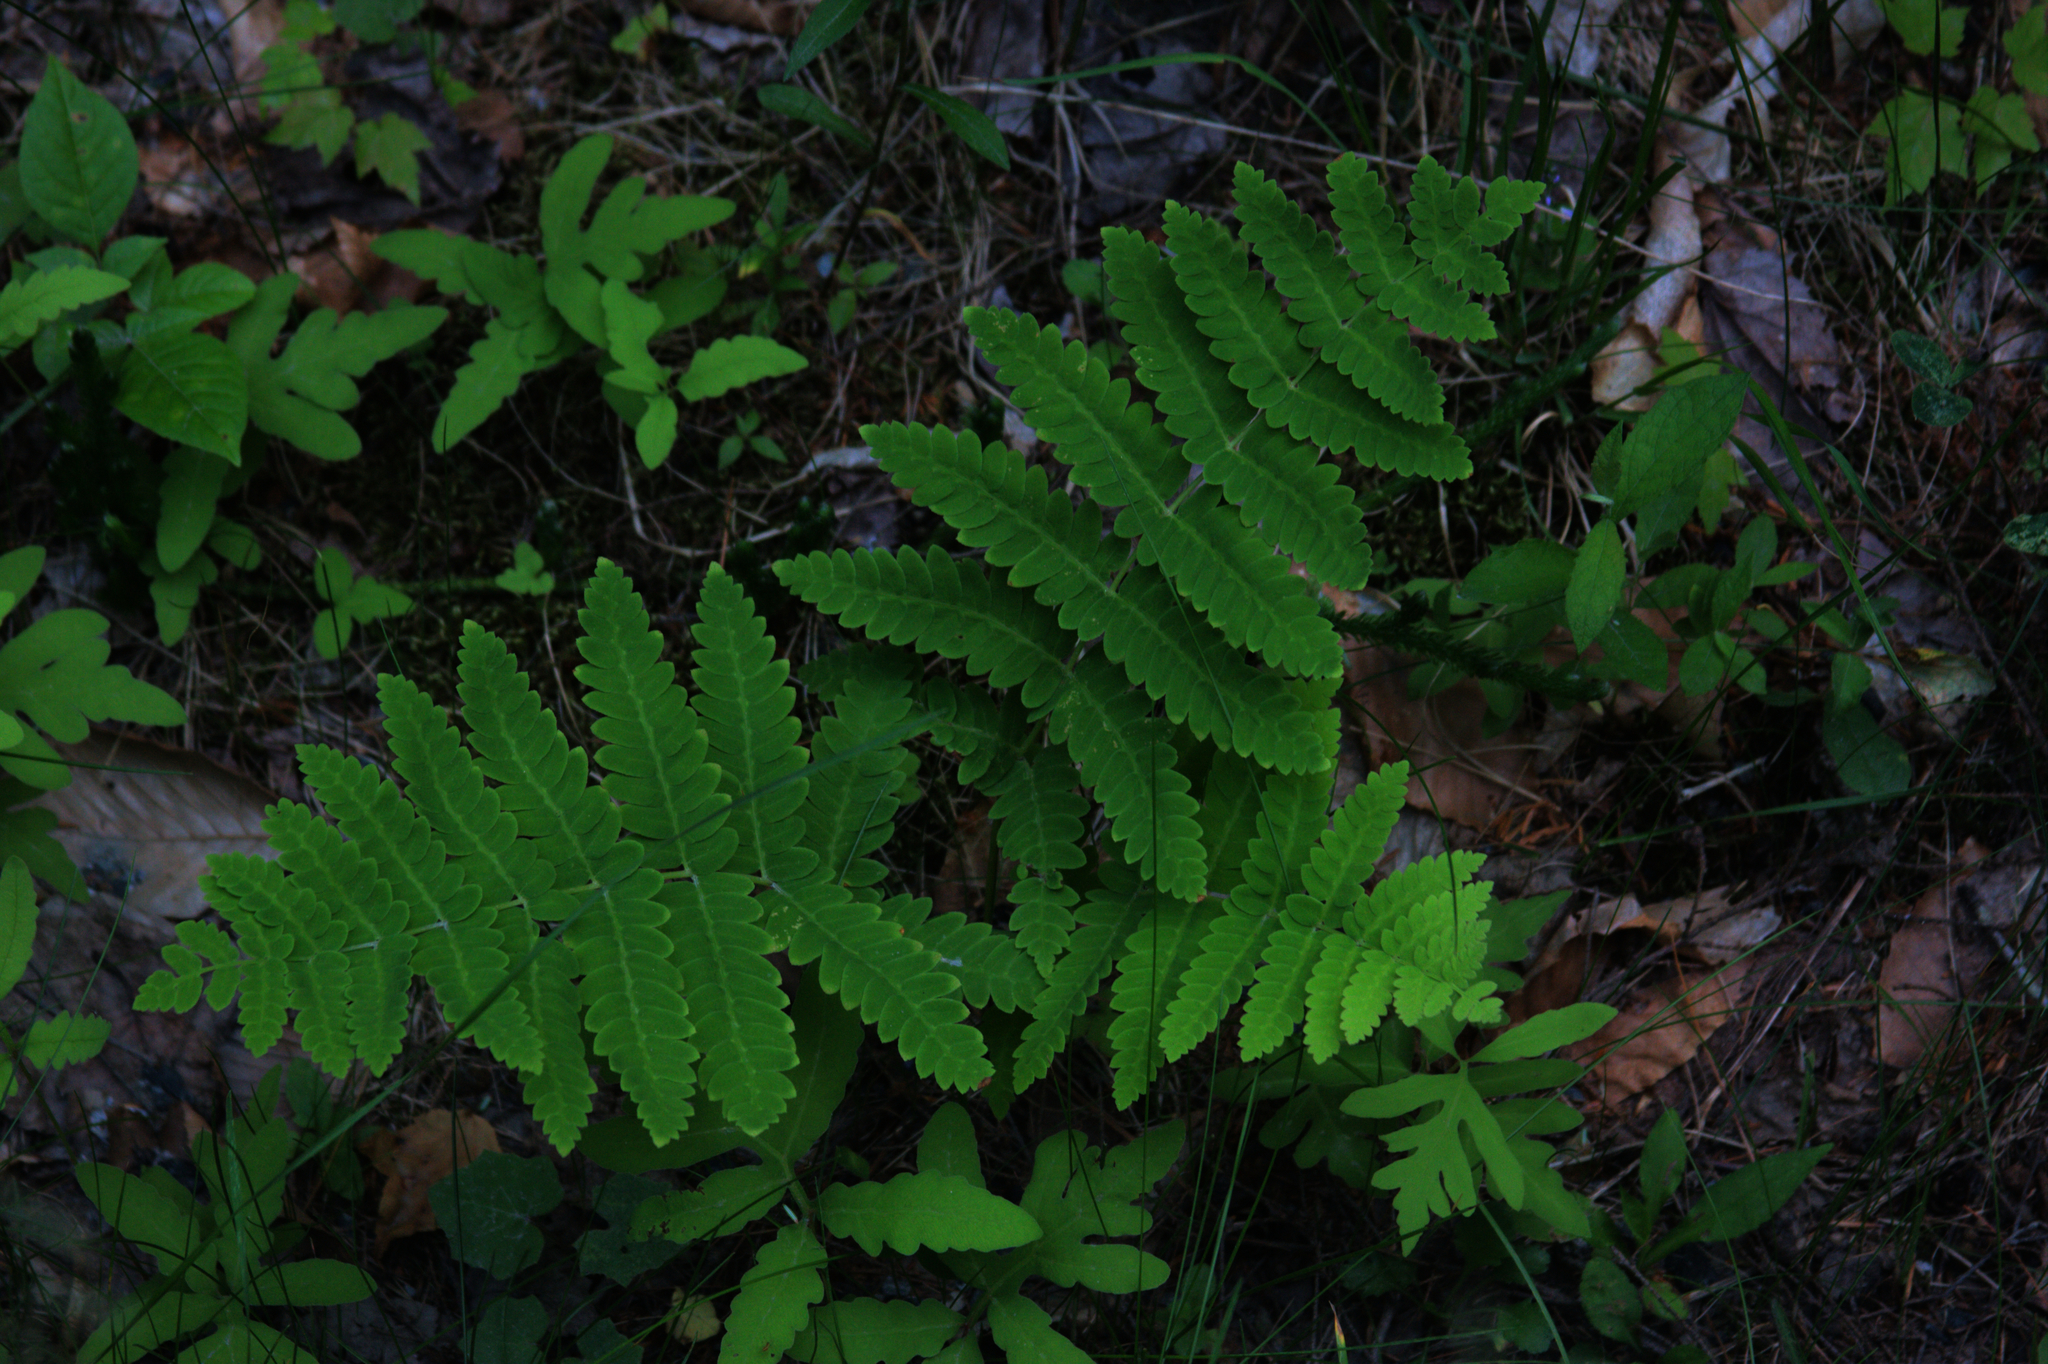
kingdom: Plantae
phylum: Tracheophyta
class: Polypodiopsida
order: Osmundales
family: Osmundaceae
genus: Claytosmunda
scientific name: Claytosmunda claytoniana
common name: Clayton's fern
